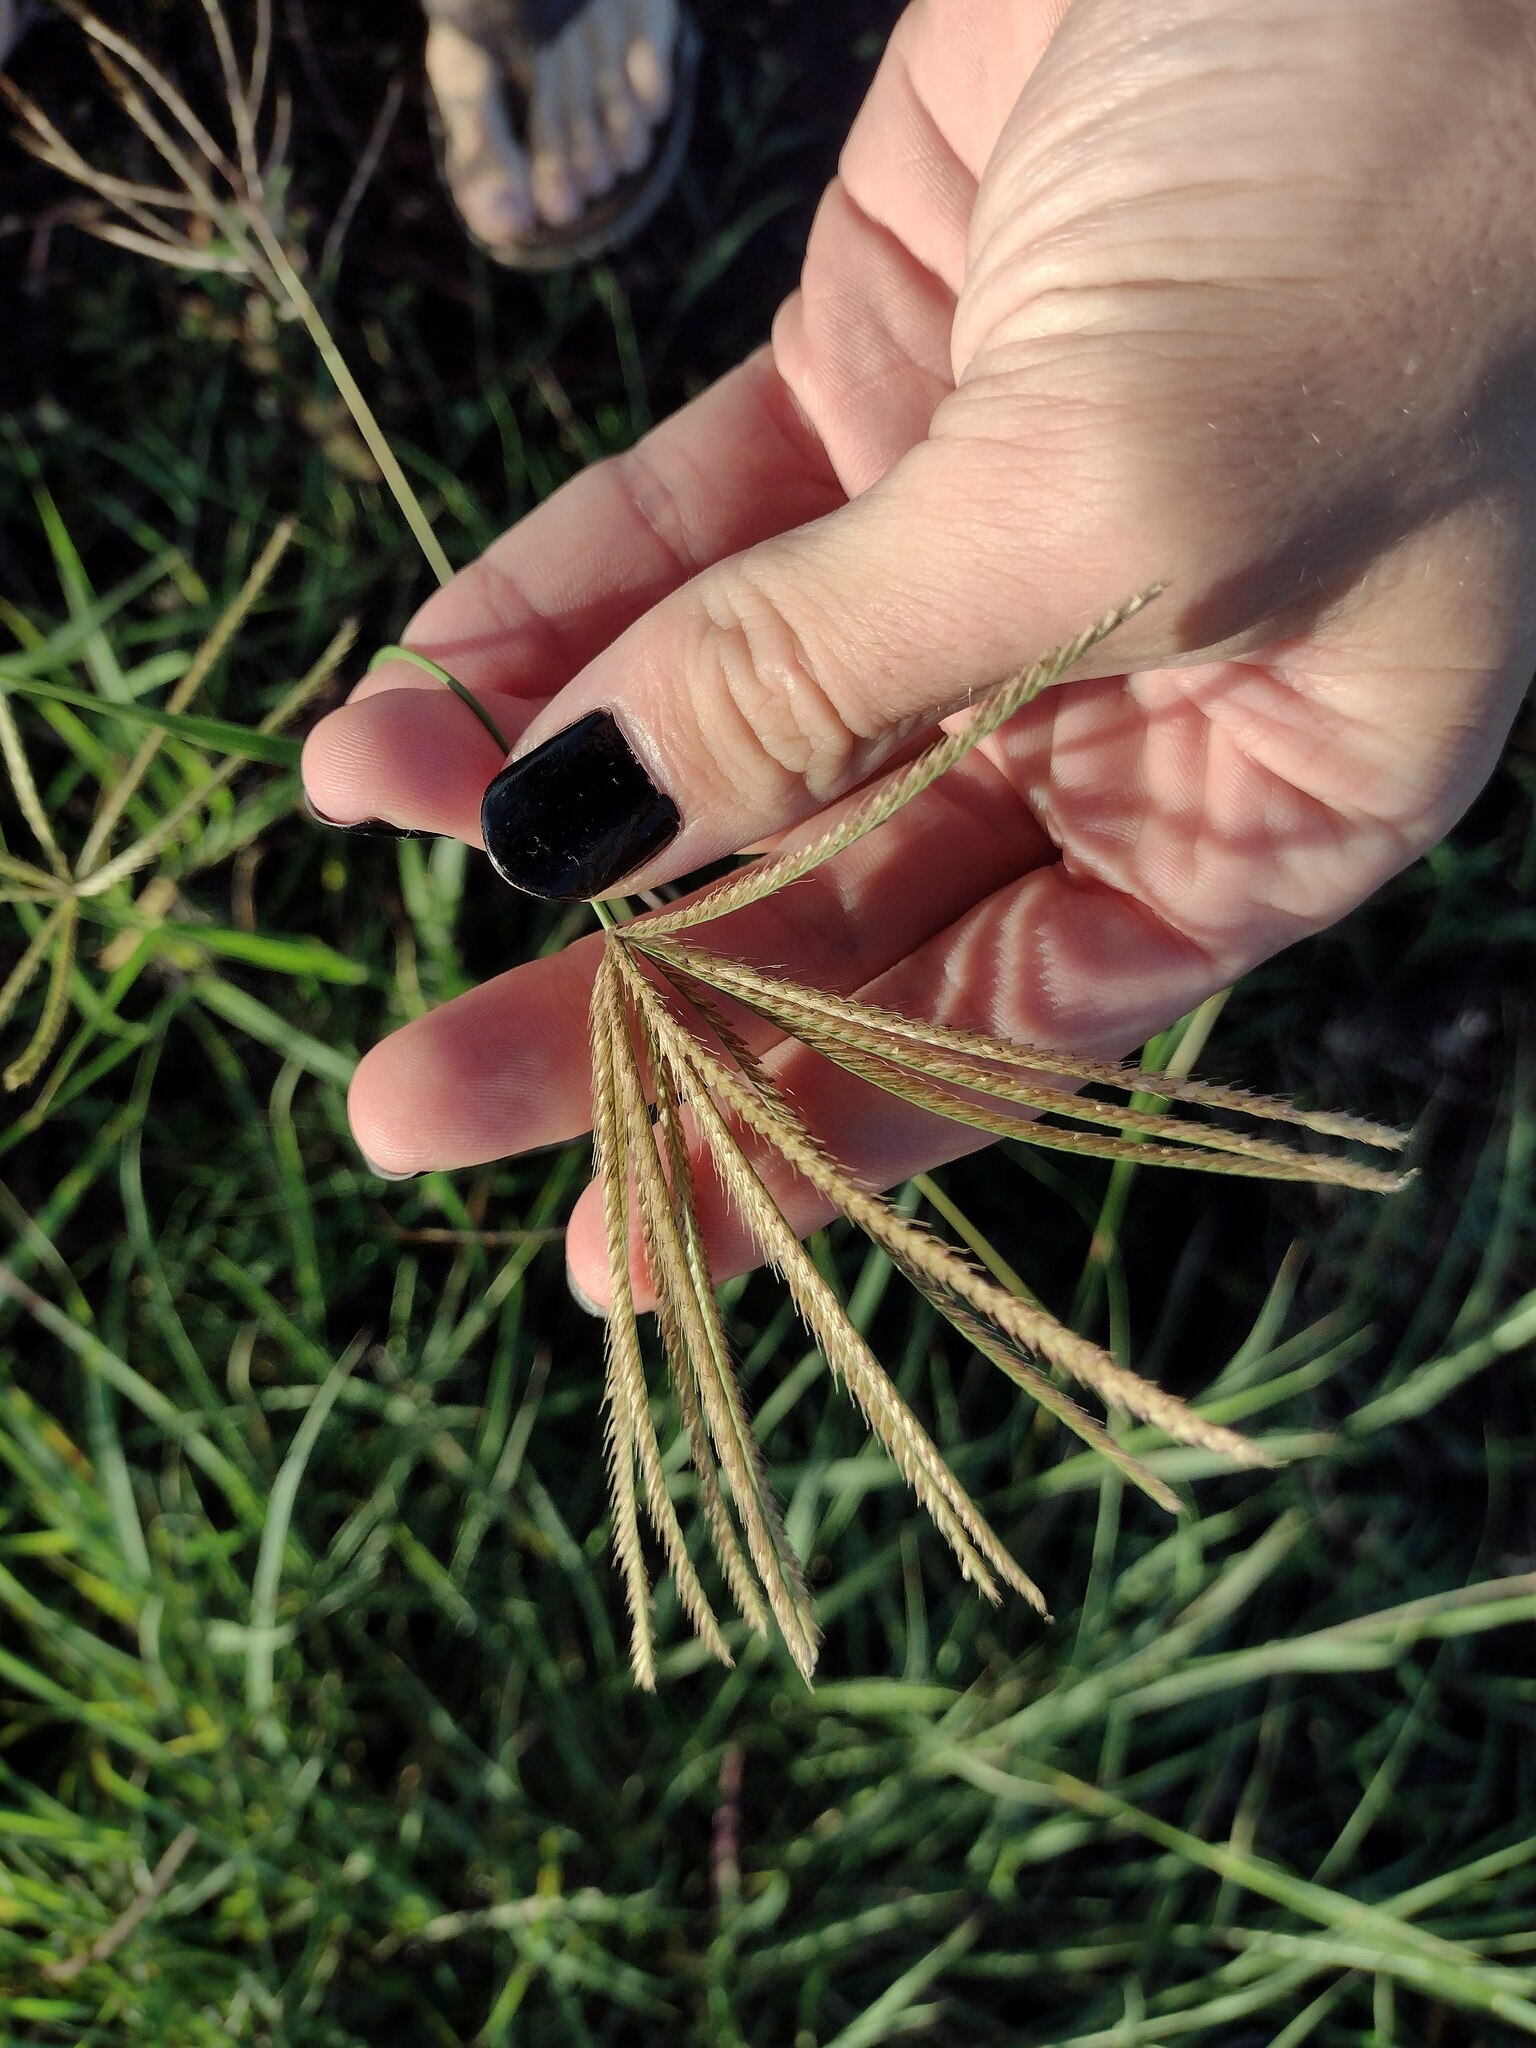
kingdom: Plantae
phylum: Tracheophyta
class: Liliopsida
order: Poales
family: Poaceae
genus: Chloris
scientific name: Chloris gayana
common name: Rhodes grass
